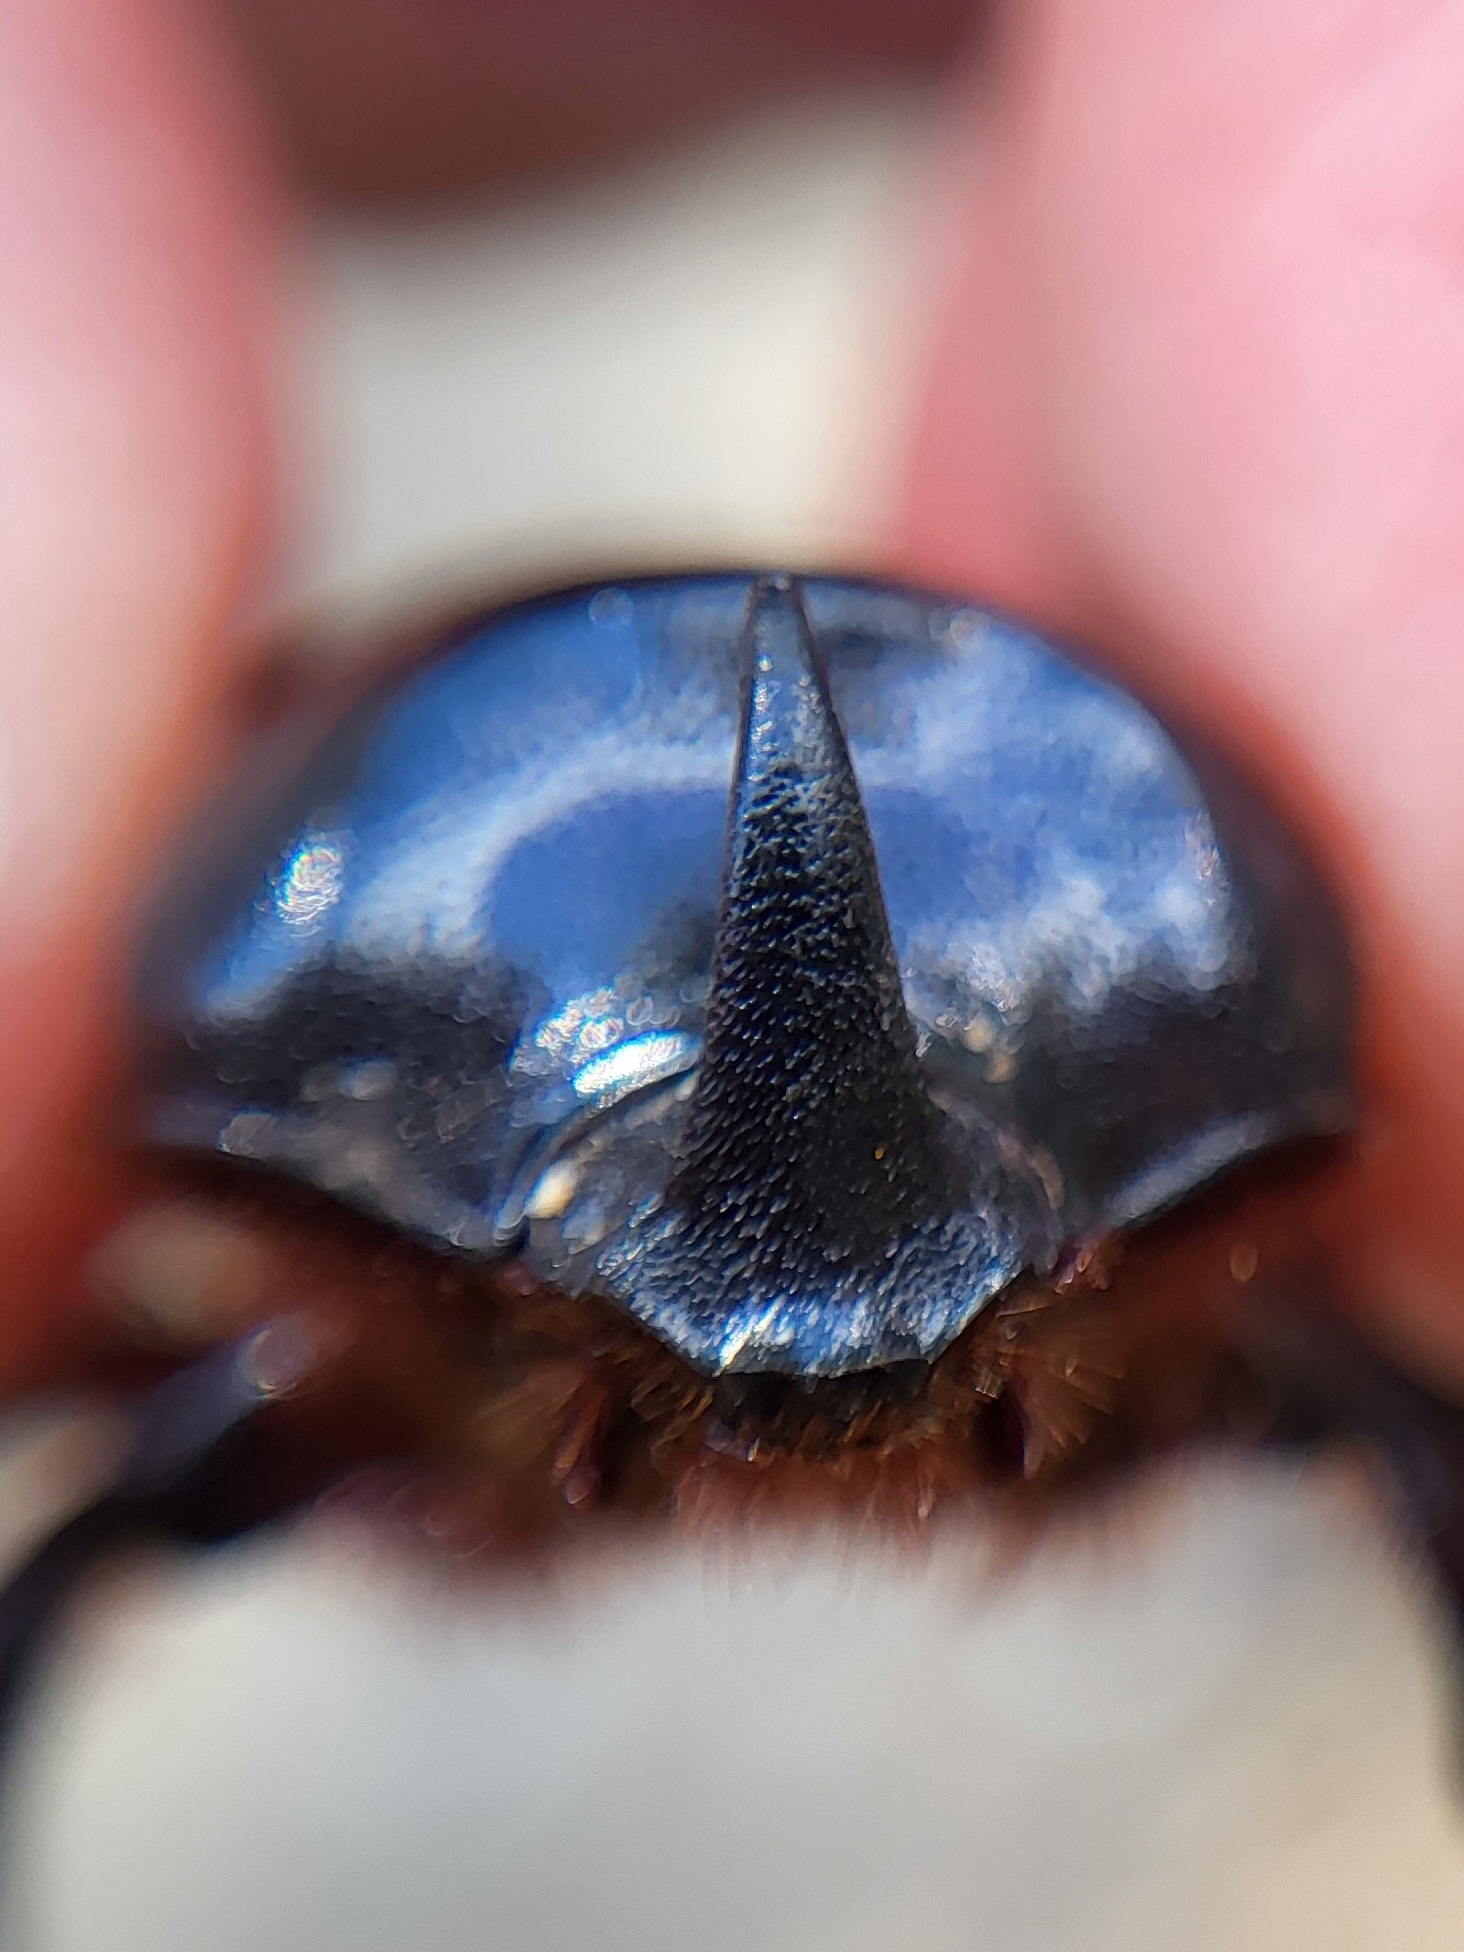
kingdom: Animalia
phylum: Arthropoda
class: Insecta
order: Coleoptera
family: Scarabaeidae
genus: Xyloryctes
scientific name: Xyloryctes jamaicensis
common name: Eastern rhinoceros beetle
